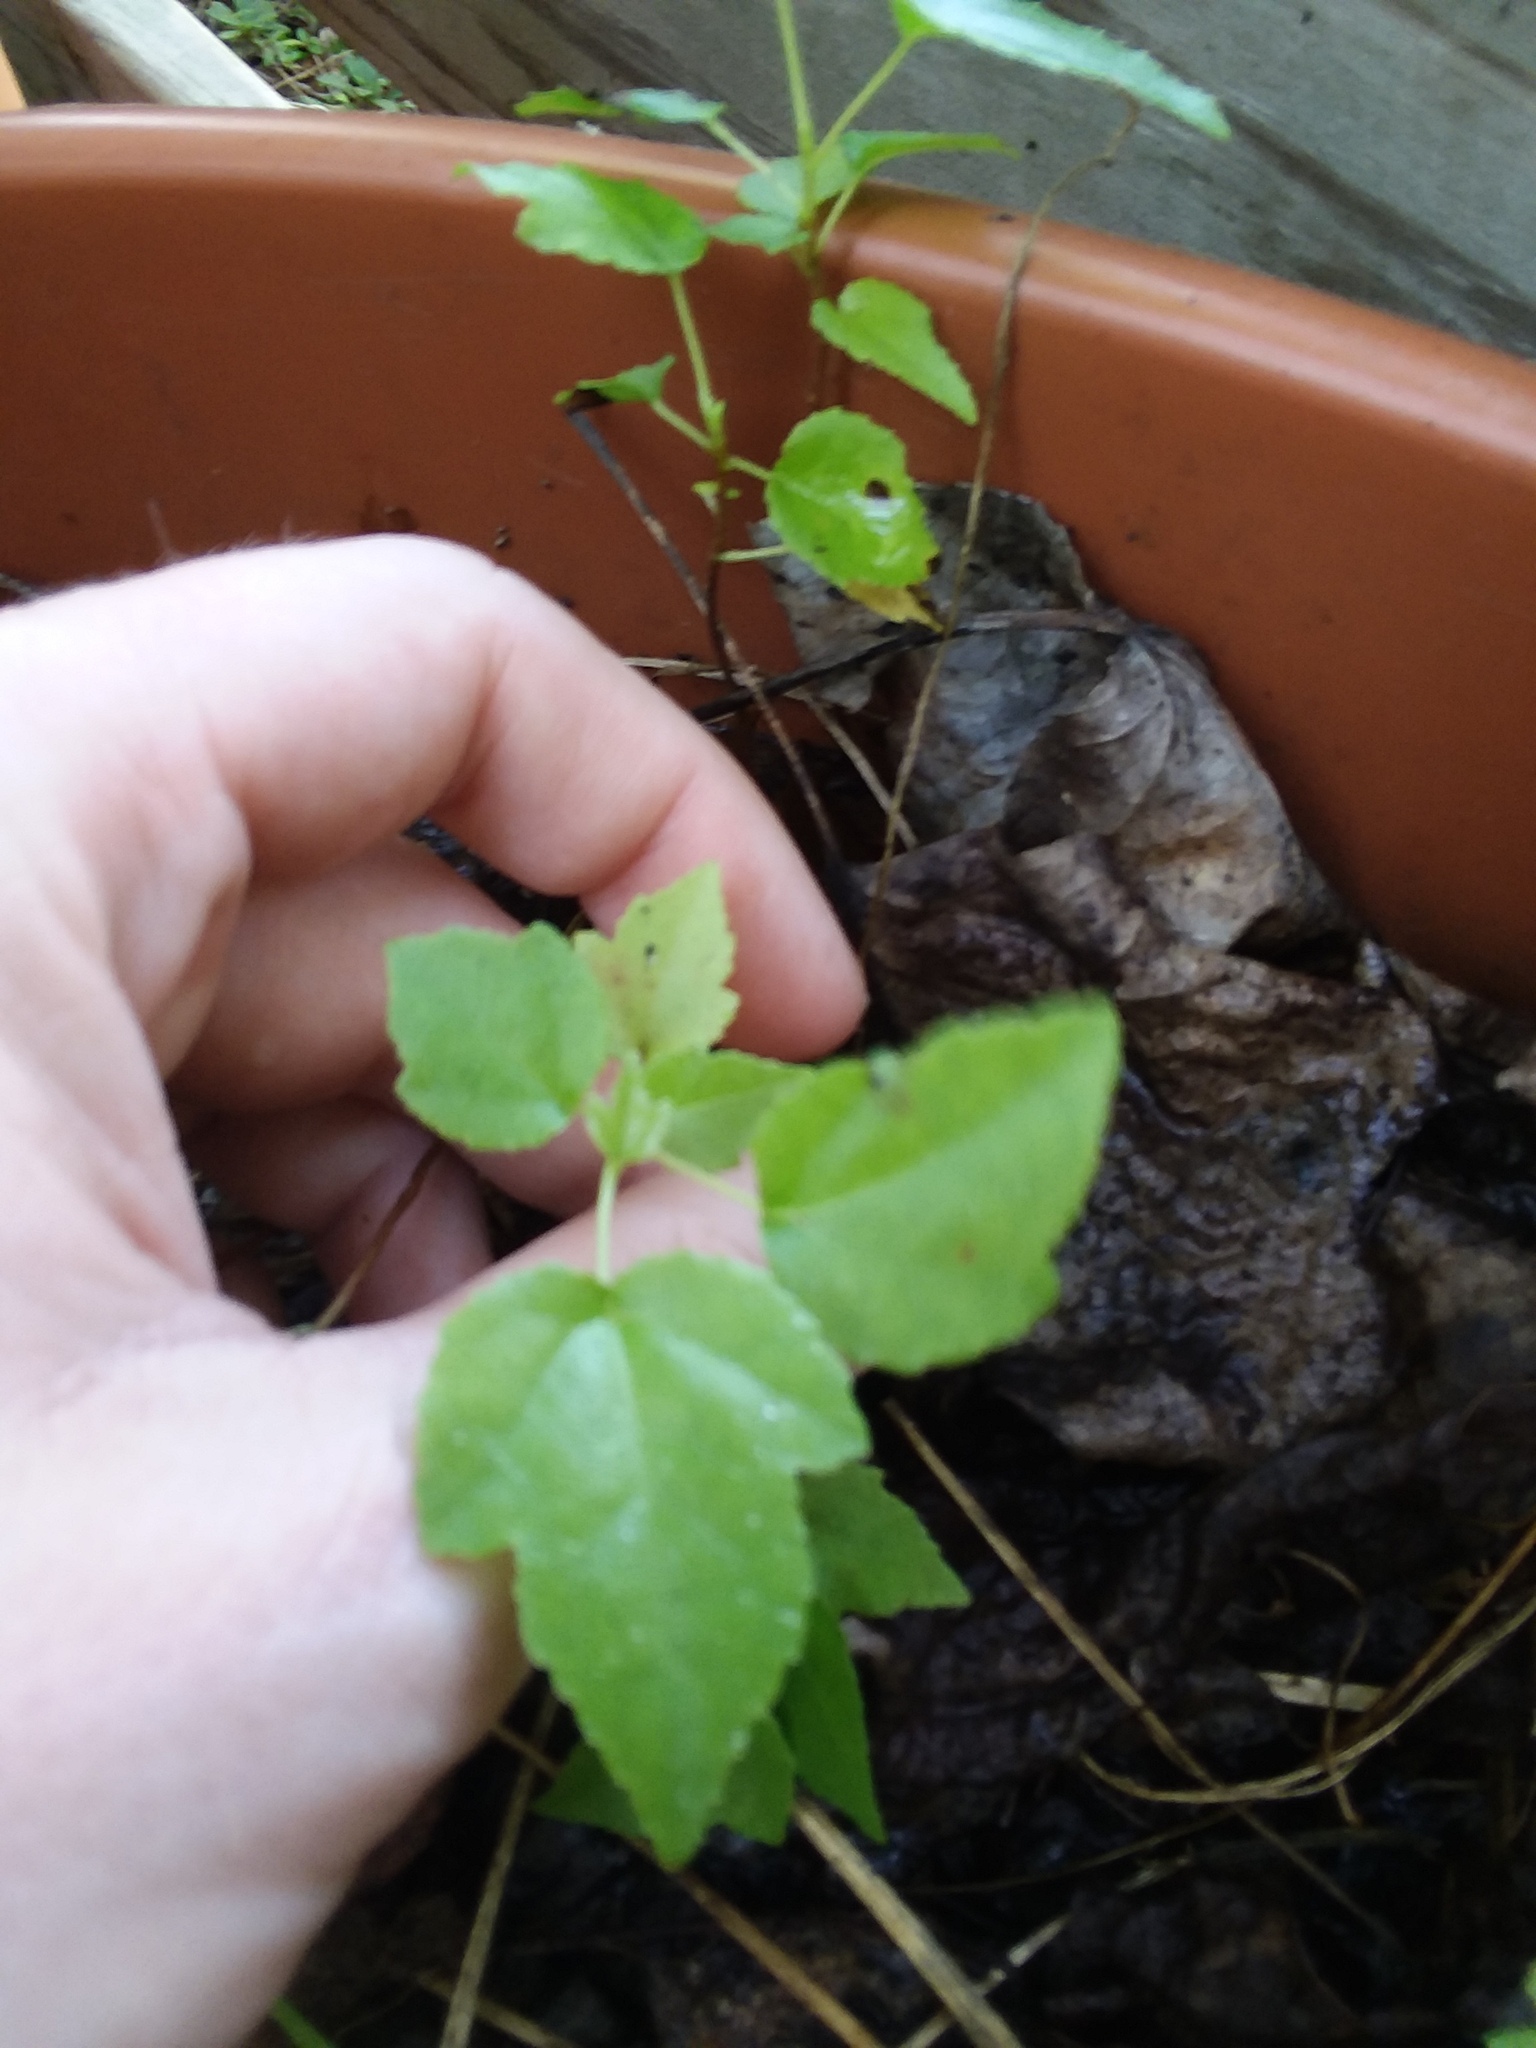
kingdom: Plantae
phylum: Tracheophyta
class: Magnoliopsida
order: Saxifragales
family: Altingiaceae
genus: Liquidambar
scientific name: Liquidambar styraciflua
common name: Sweet gum
